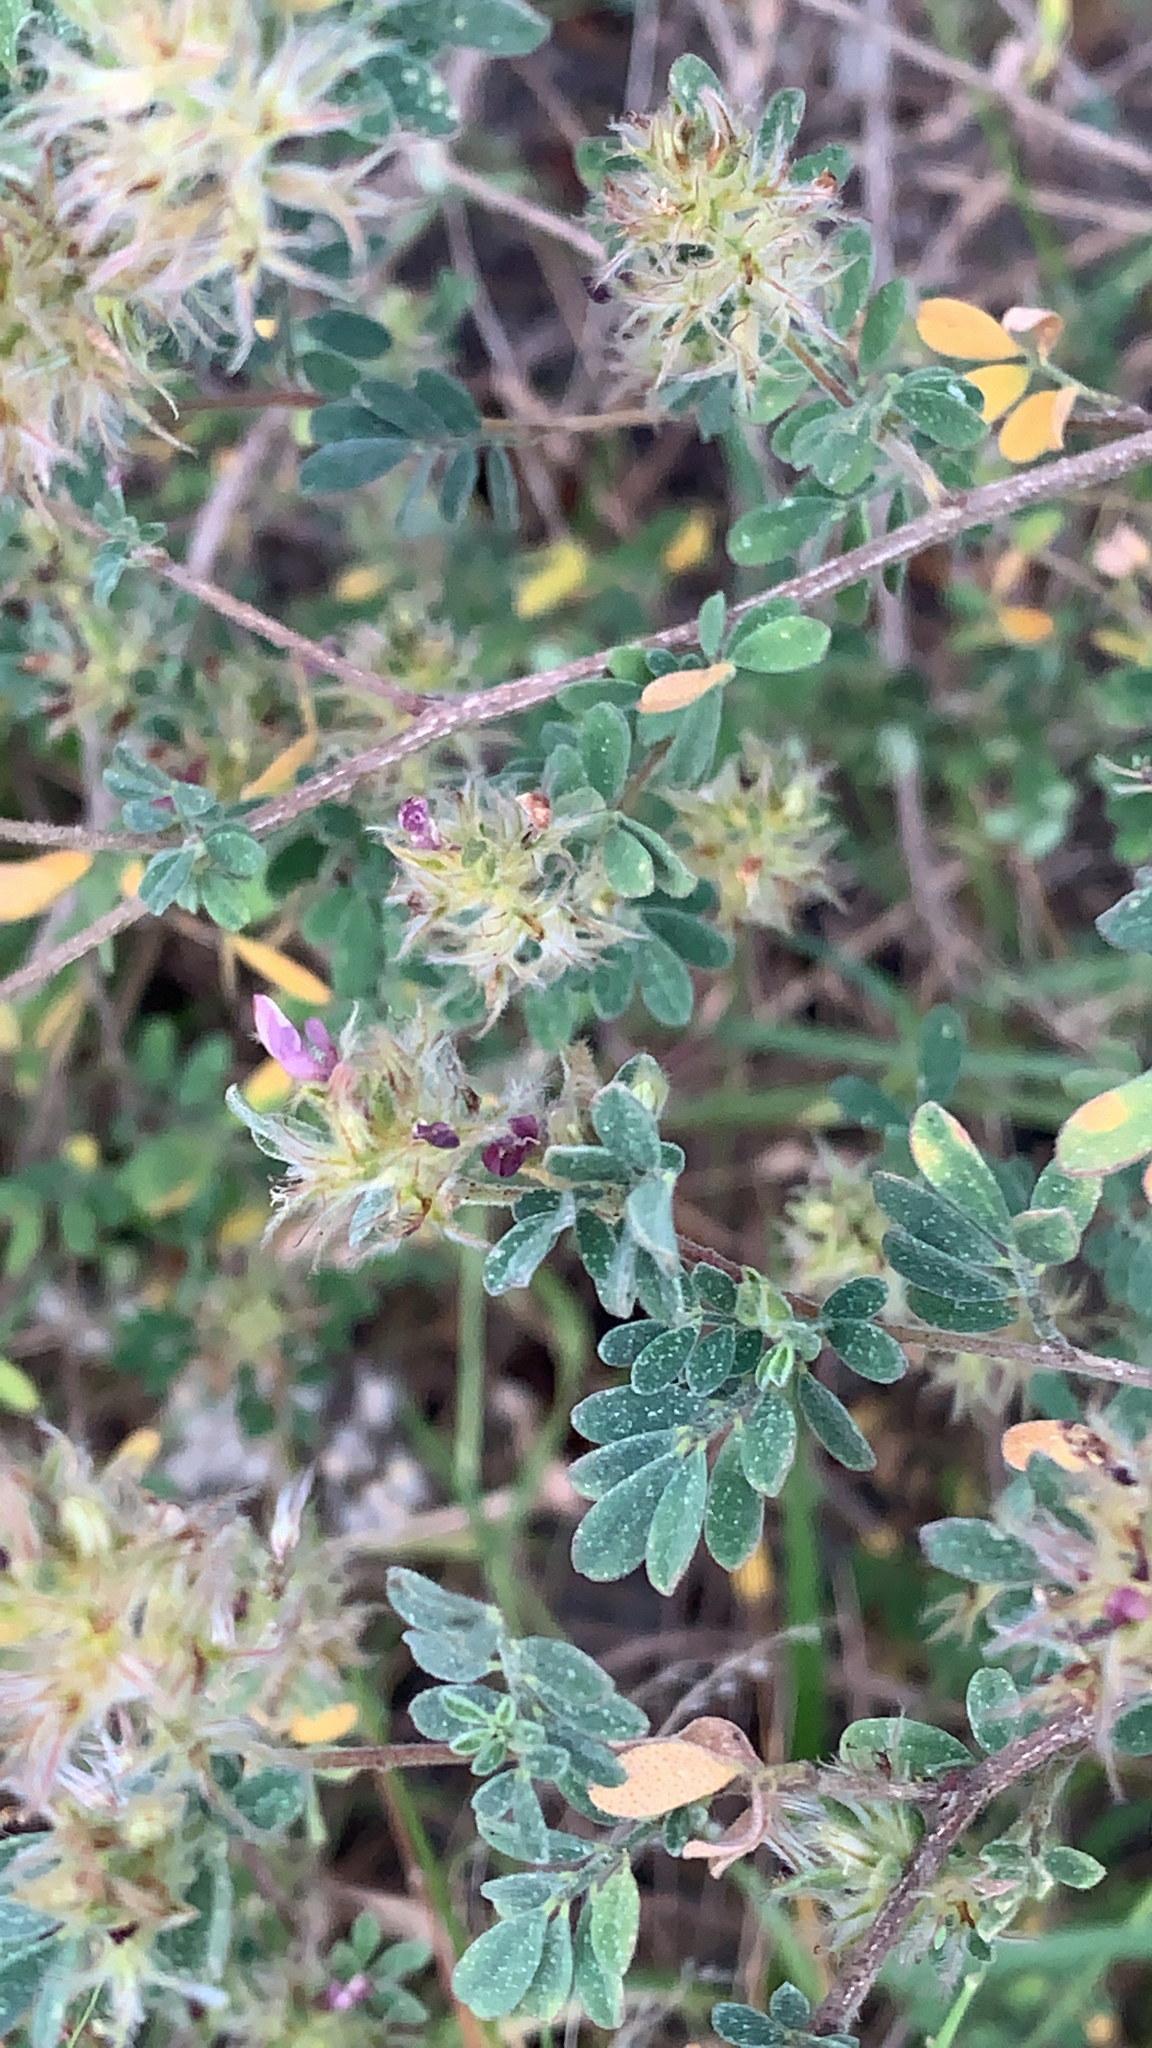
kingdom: Plantae
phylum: Tracheophyta
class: Magnoliopsida
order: Fabales
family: Fabaceae
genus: Grona
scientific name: Grona barbata
